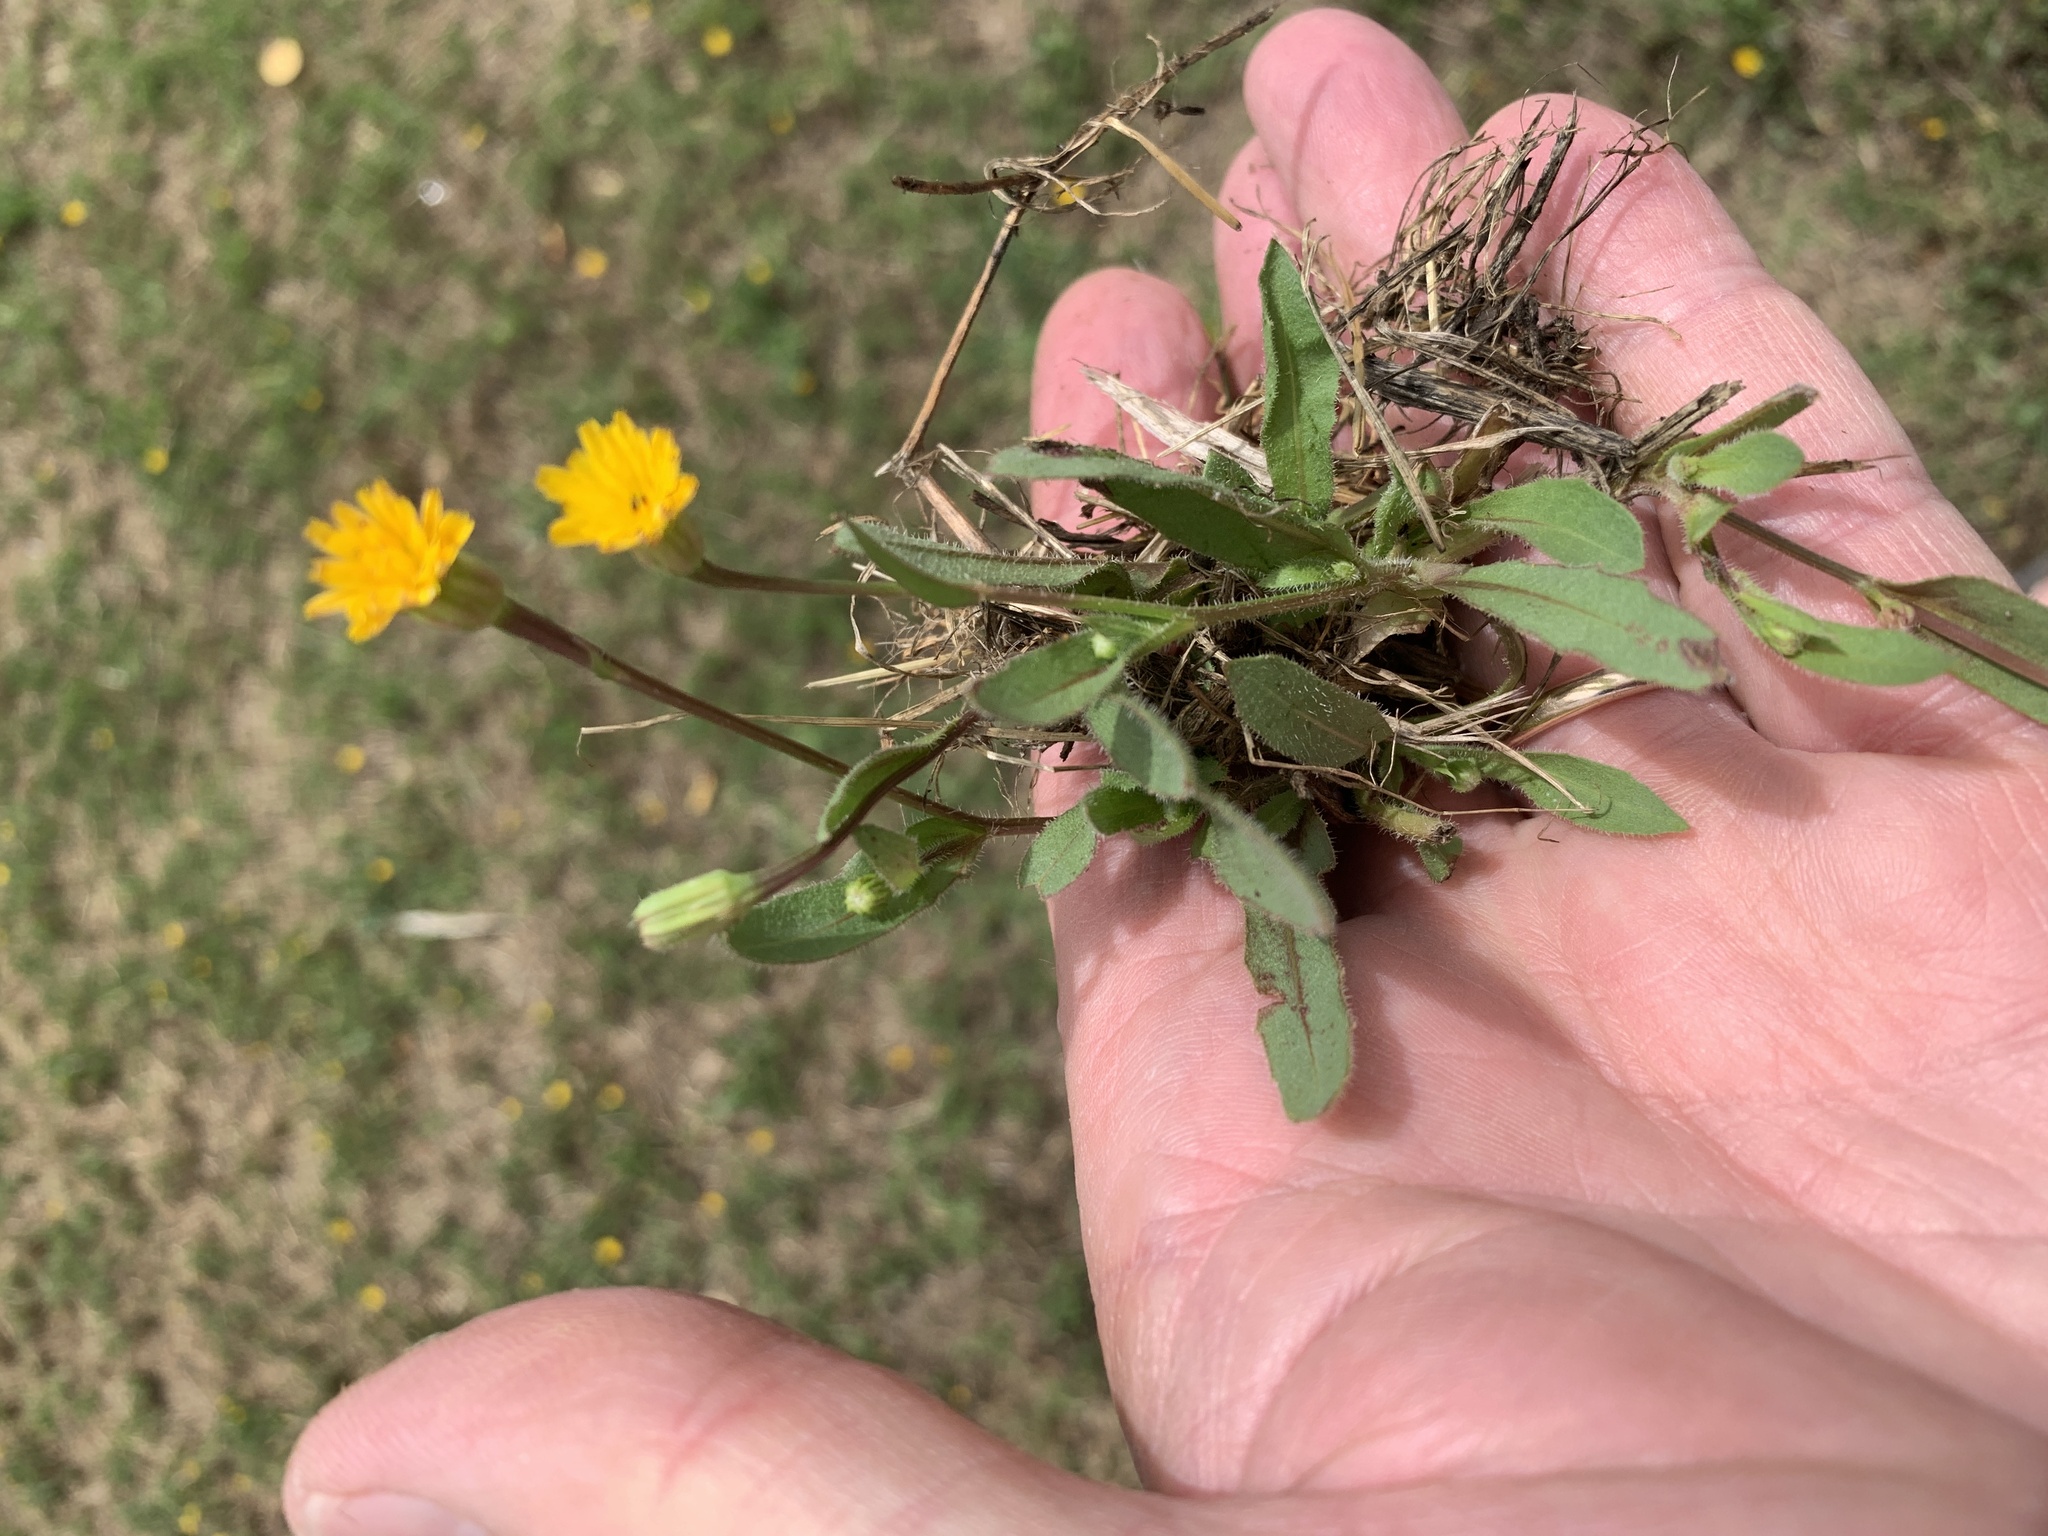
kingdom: Plantae
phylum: Tracheophyta
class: Magnoliopsida
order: Asterales
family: Asteraceae
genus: Hedypnois
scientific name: Hedypnois rhagadioloides
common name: Cretan weed
